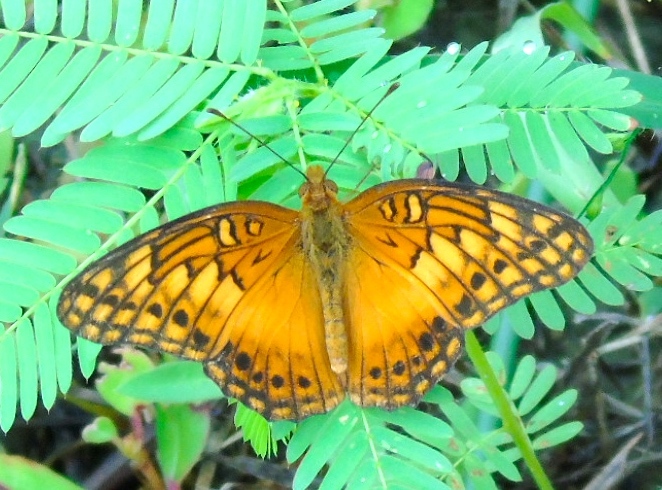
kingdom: Animalia
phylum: Arthropoda
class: Insecta
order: Lepidoptera
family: Nymphalidae
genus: Euptoieta
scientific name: Euptoieta hegesia
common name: Mexican fritillary
